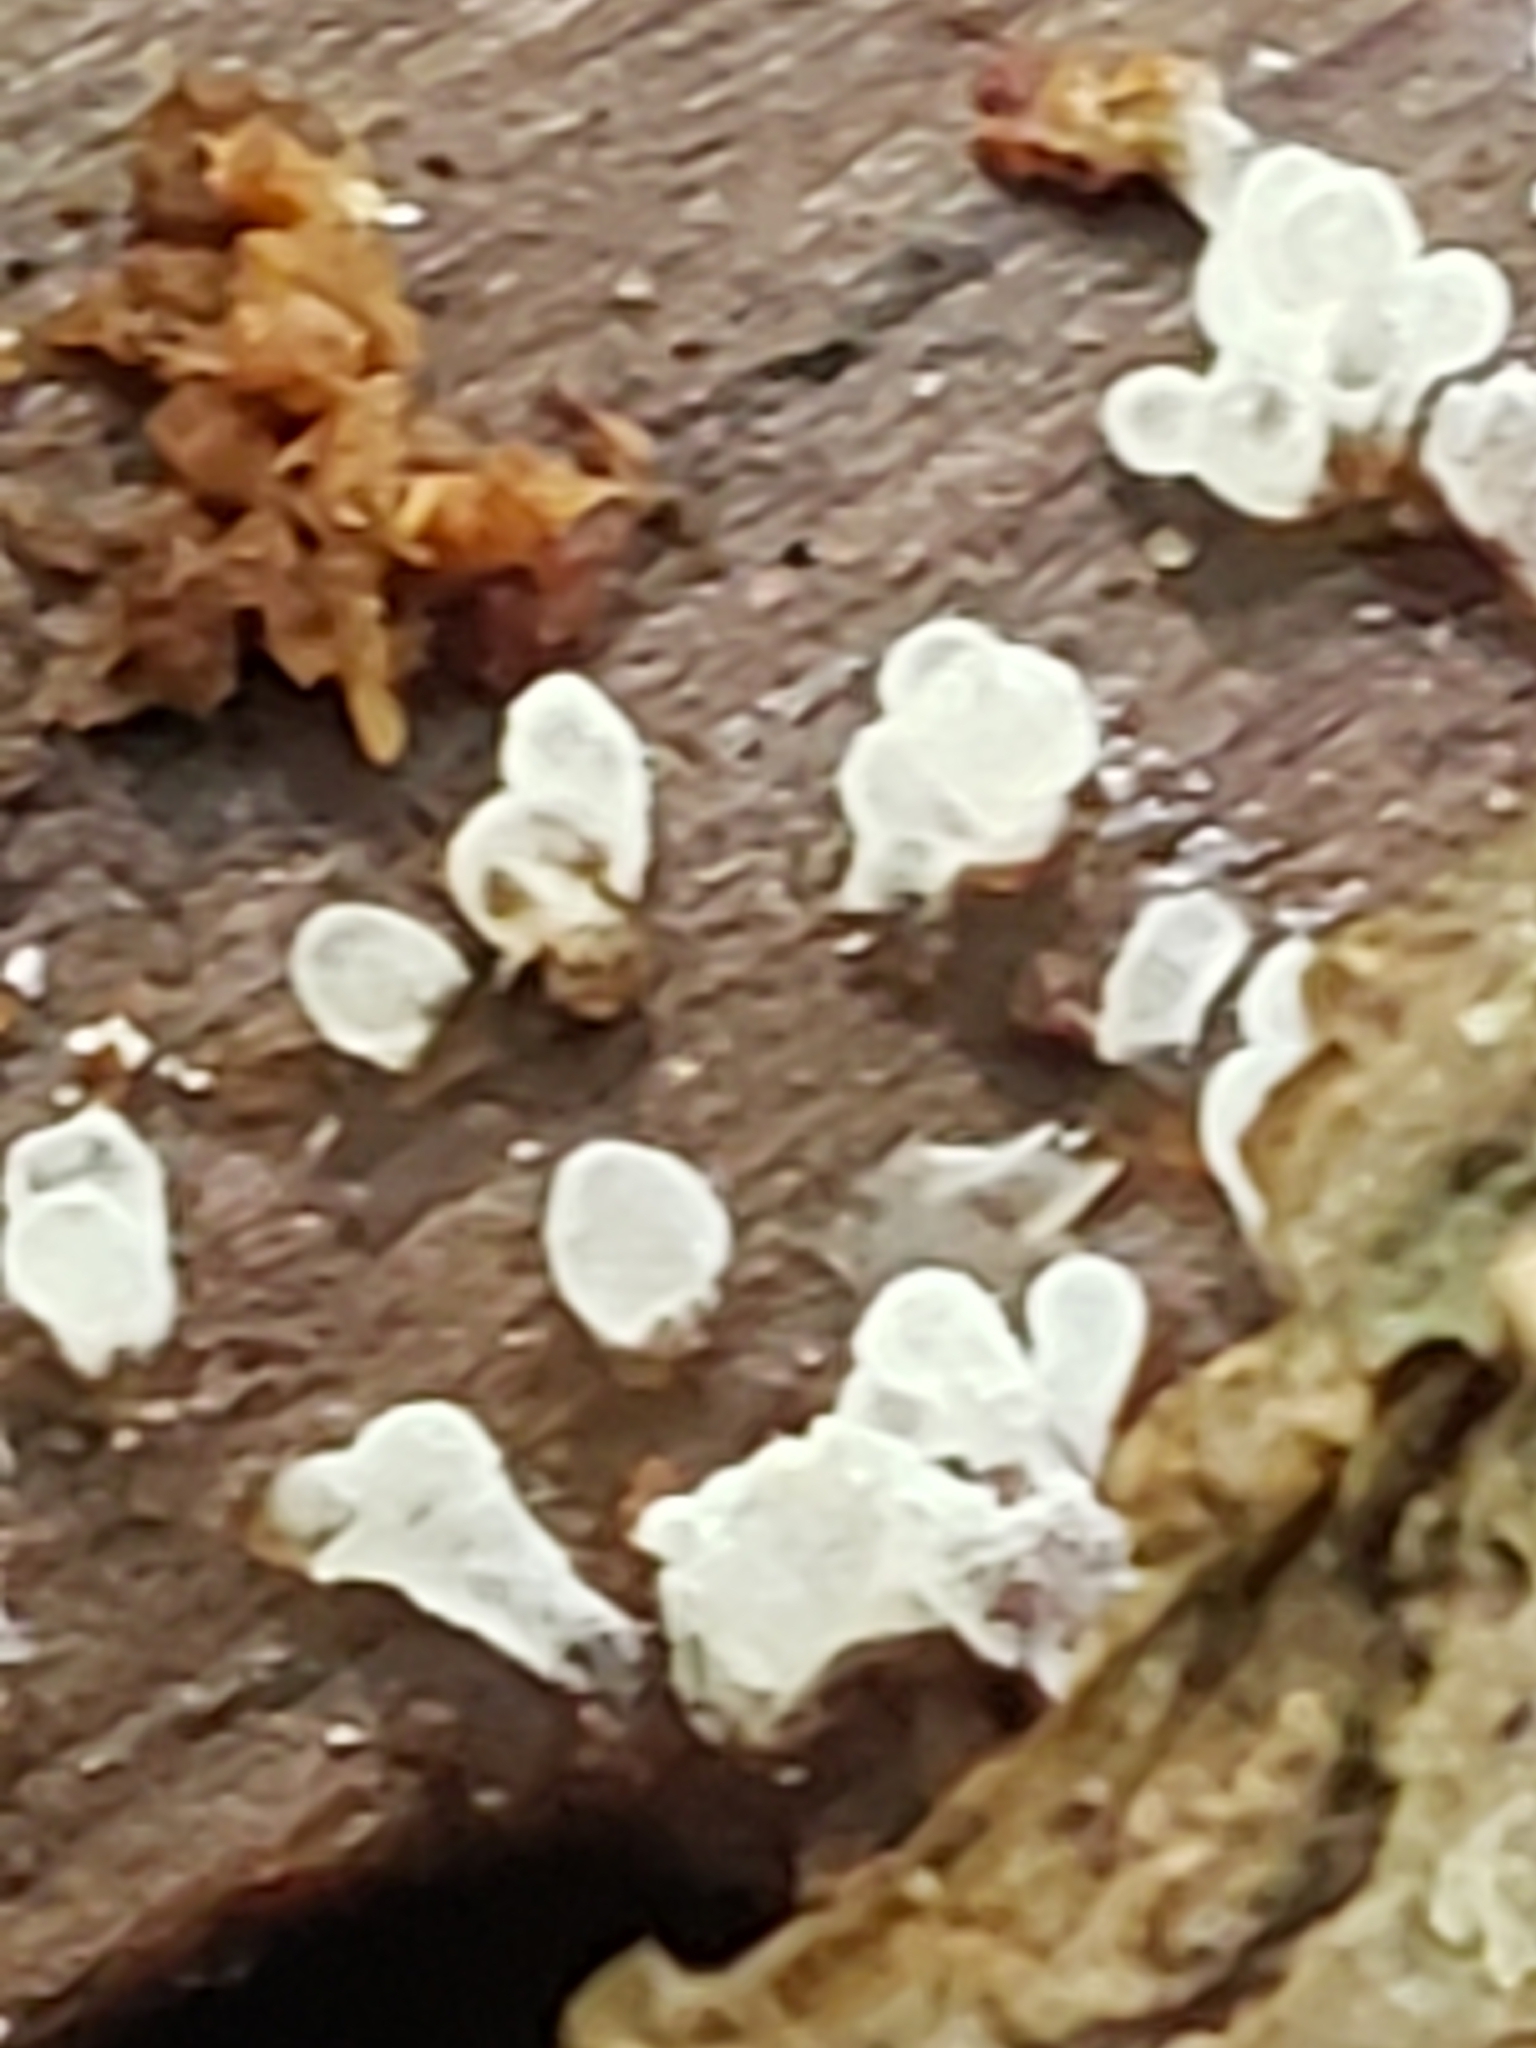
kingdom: Protozoa
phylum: Mycetozoa
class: Protosteliomycetes
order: Ceratiomyxales
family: Ceratiomyxaceae
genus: Ceratiomyxa
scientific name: Ceratiomyxa fruticulosa
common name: Honeycomb coral slime mold
